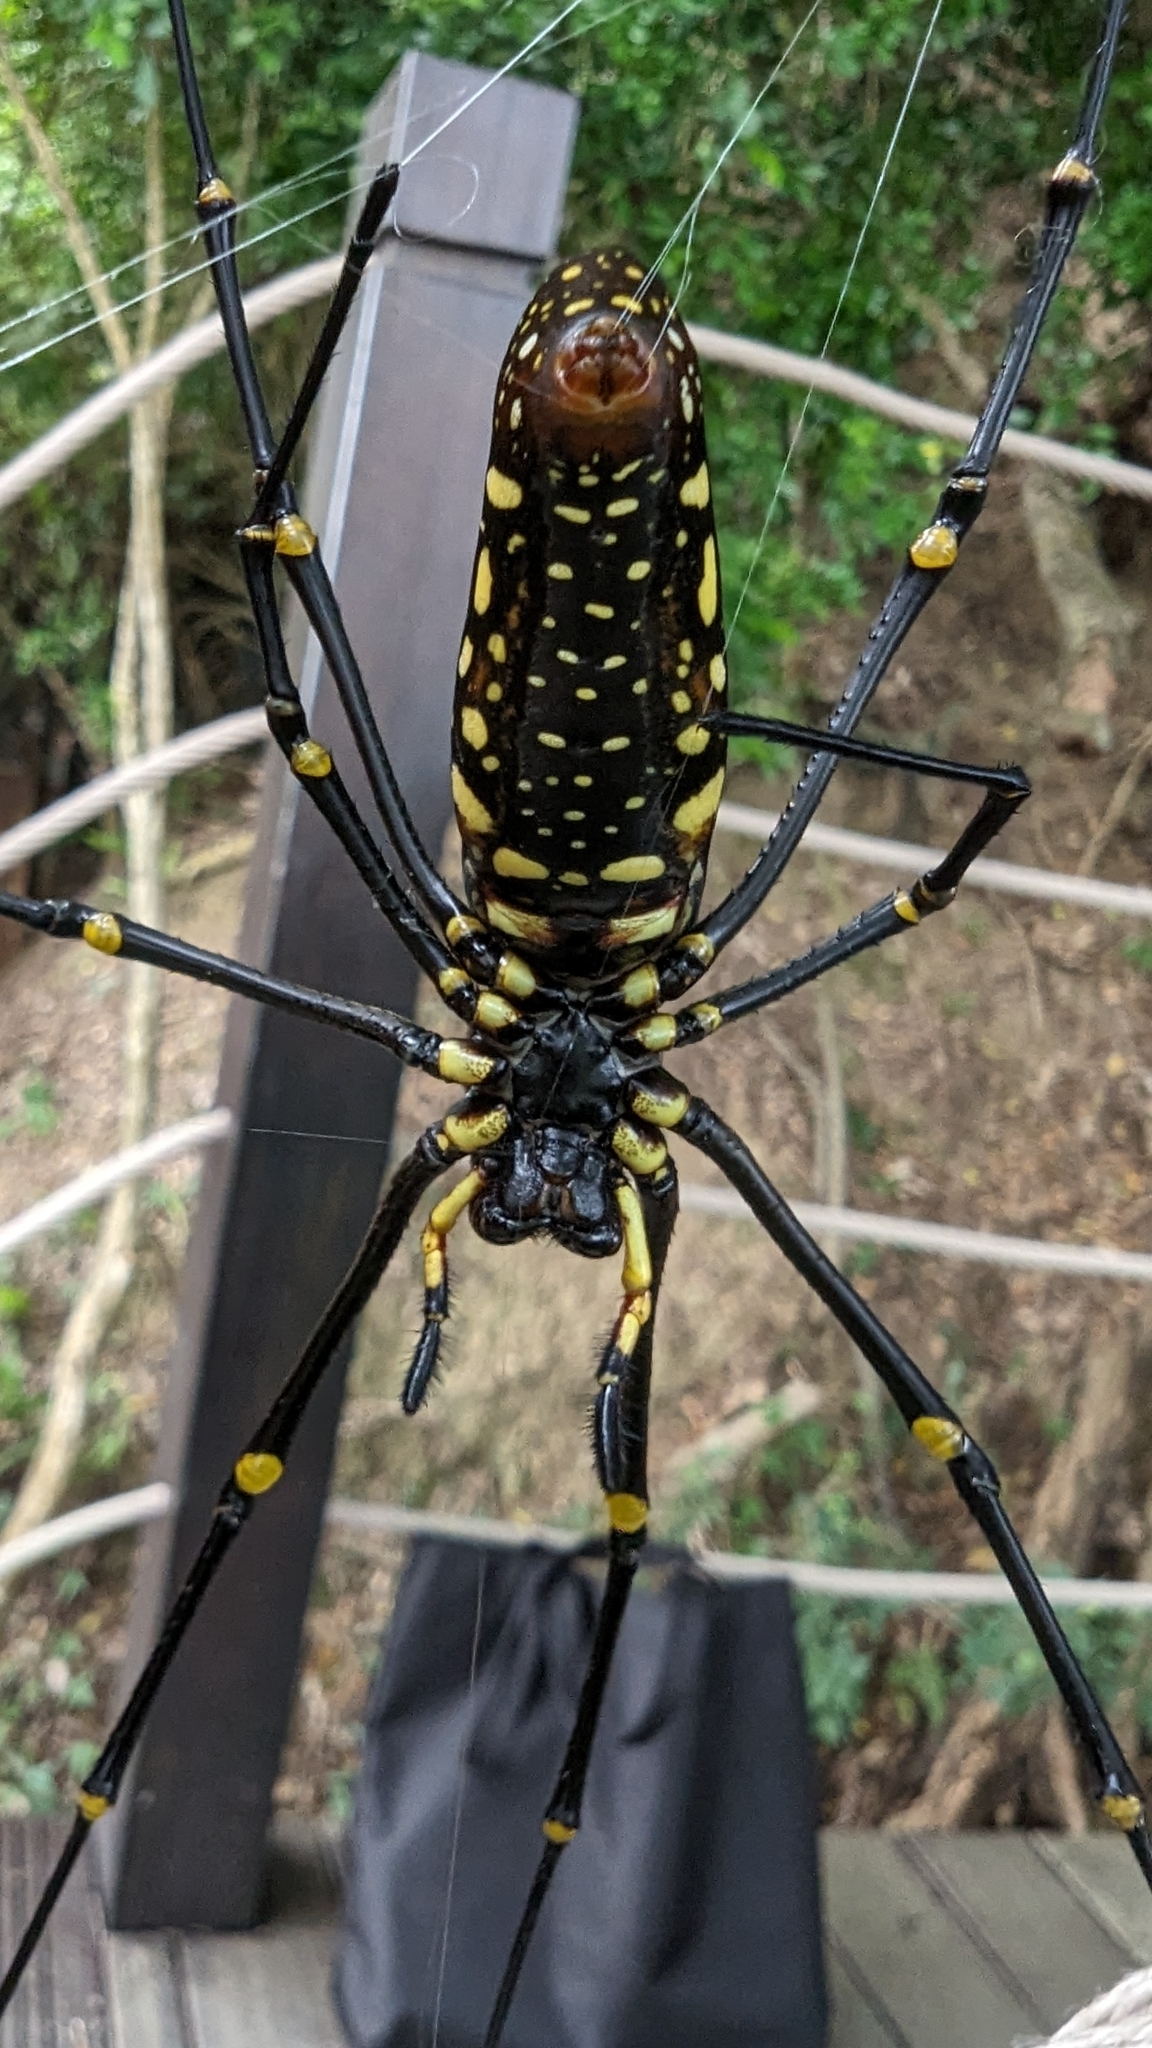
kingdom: Animalia
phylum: Arthropoda
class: Arachnida
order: Araneae
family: Araneidae
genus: Nephila
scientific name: Nephila pilipes
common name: Giant golden orb weaver
